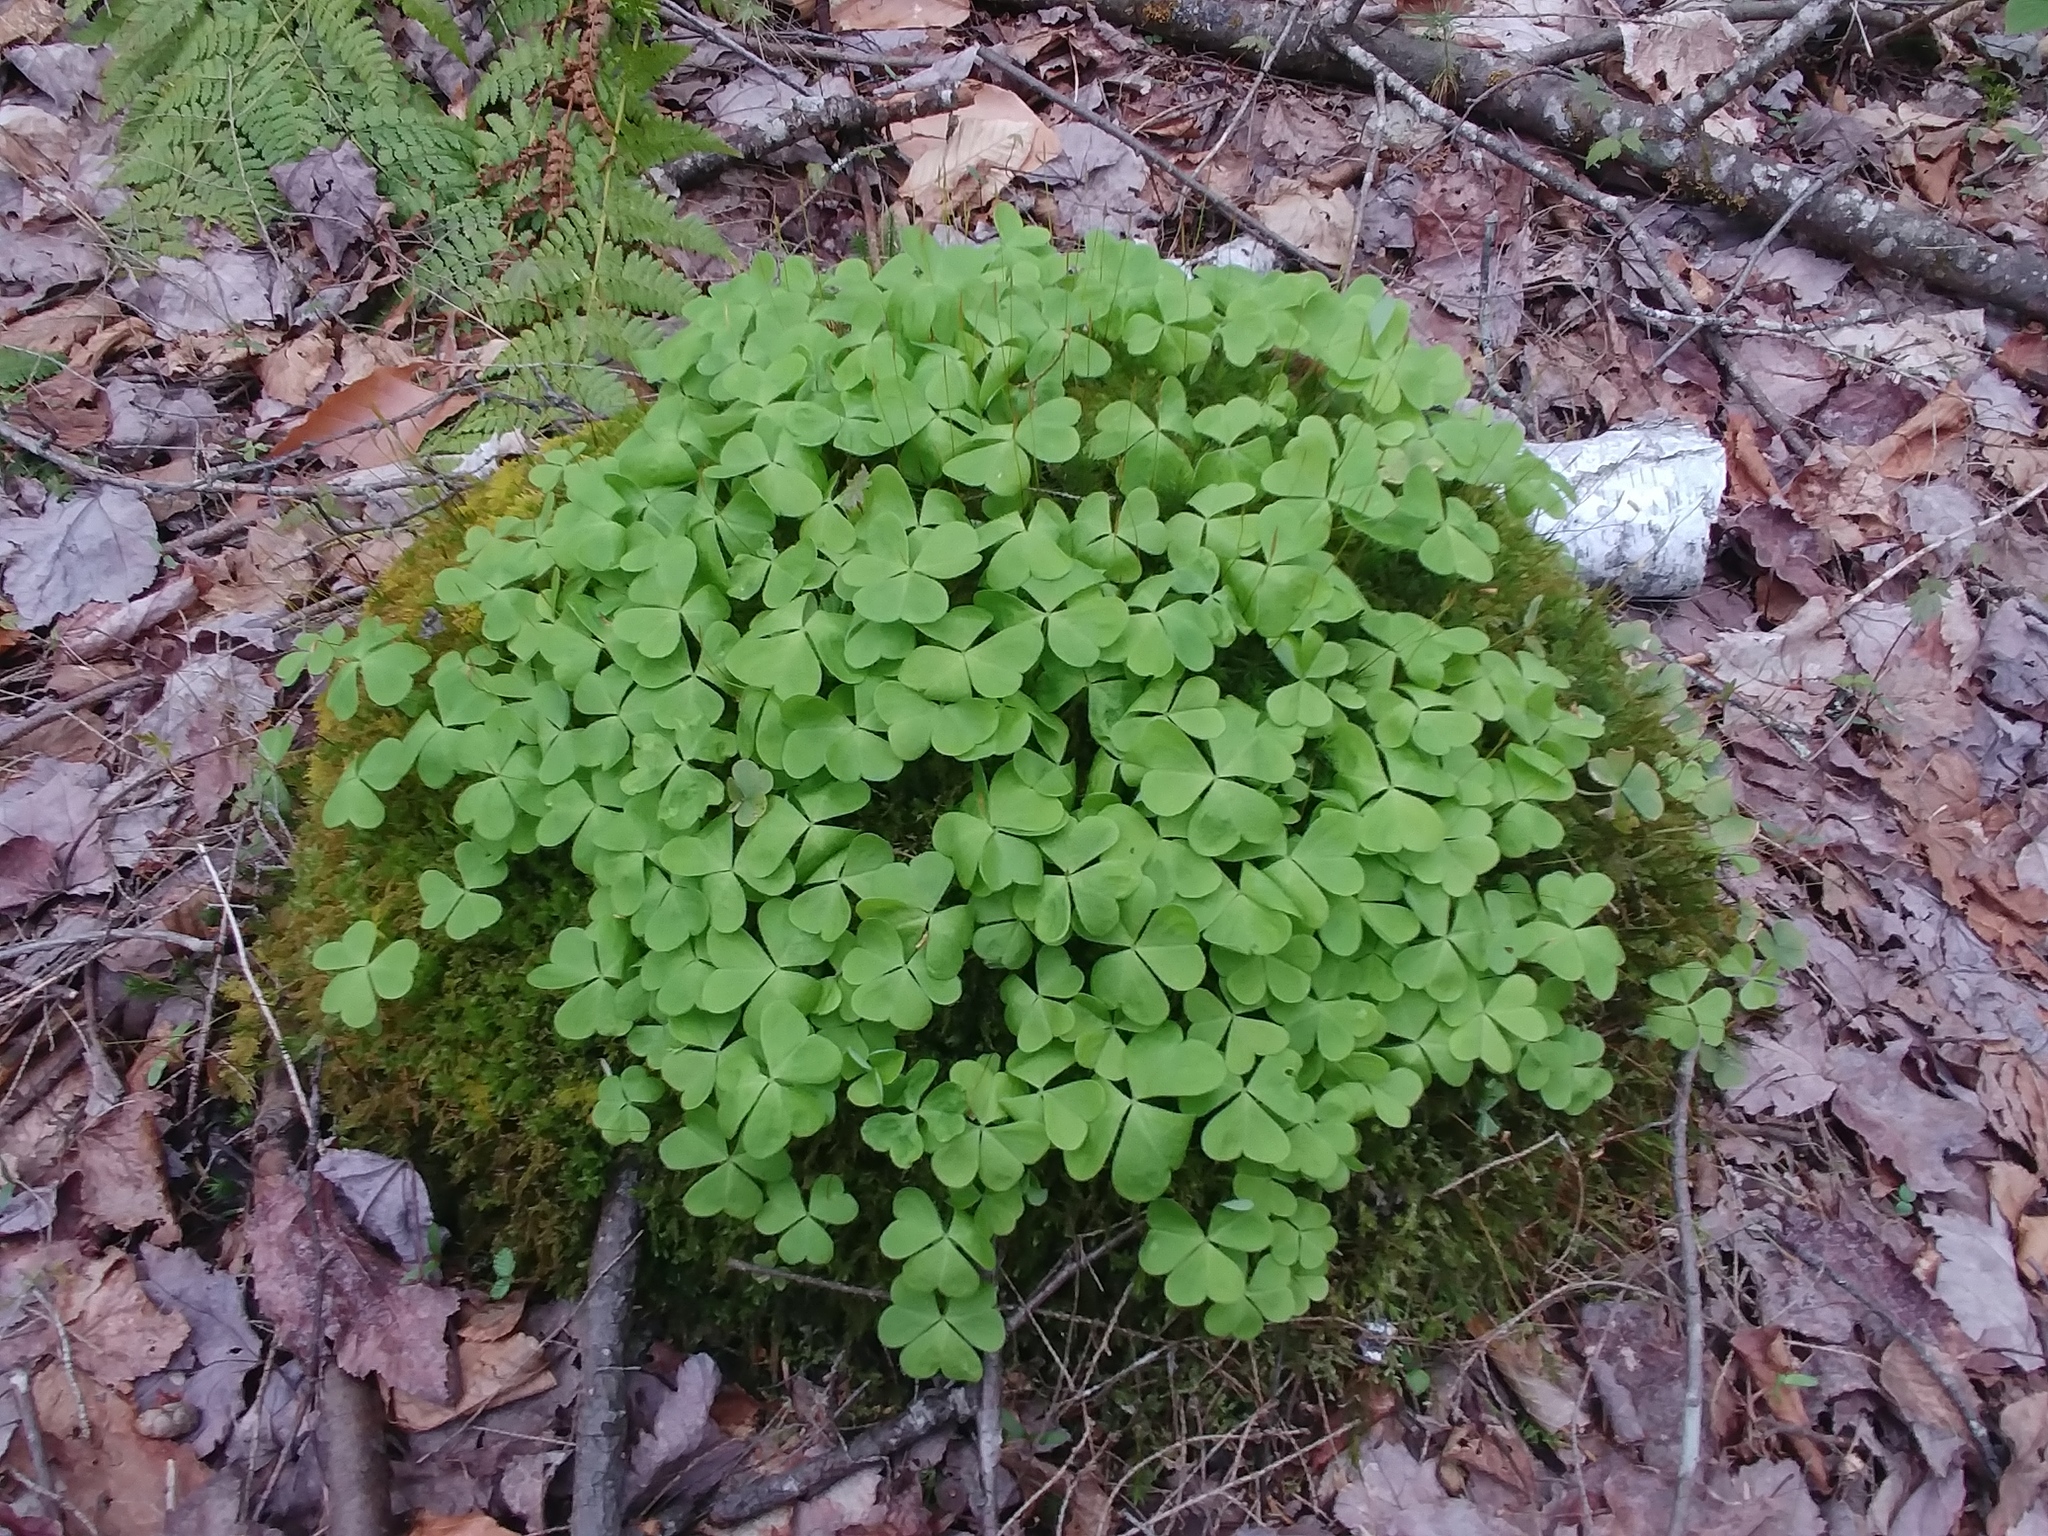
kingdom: Plantae
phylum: Tracheophyta
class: Magnoliopsida
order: Oxalidales
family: Oxalidaceae
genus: Oxalis
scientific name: Oxalis montana
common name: American wood-sorrel
